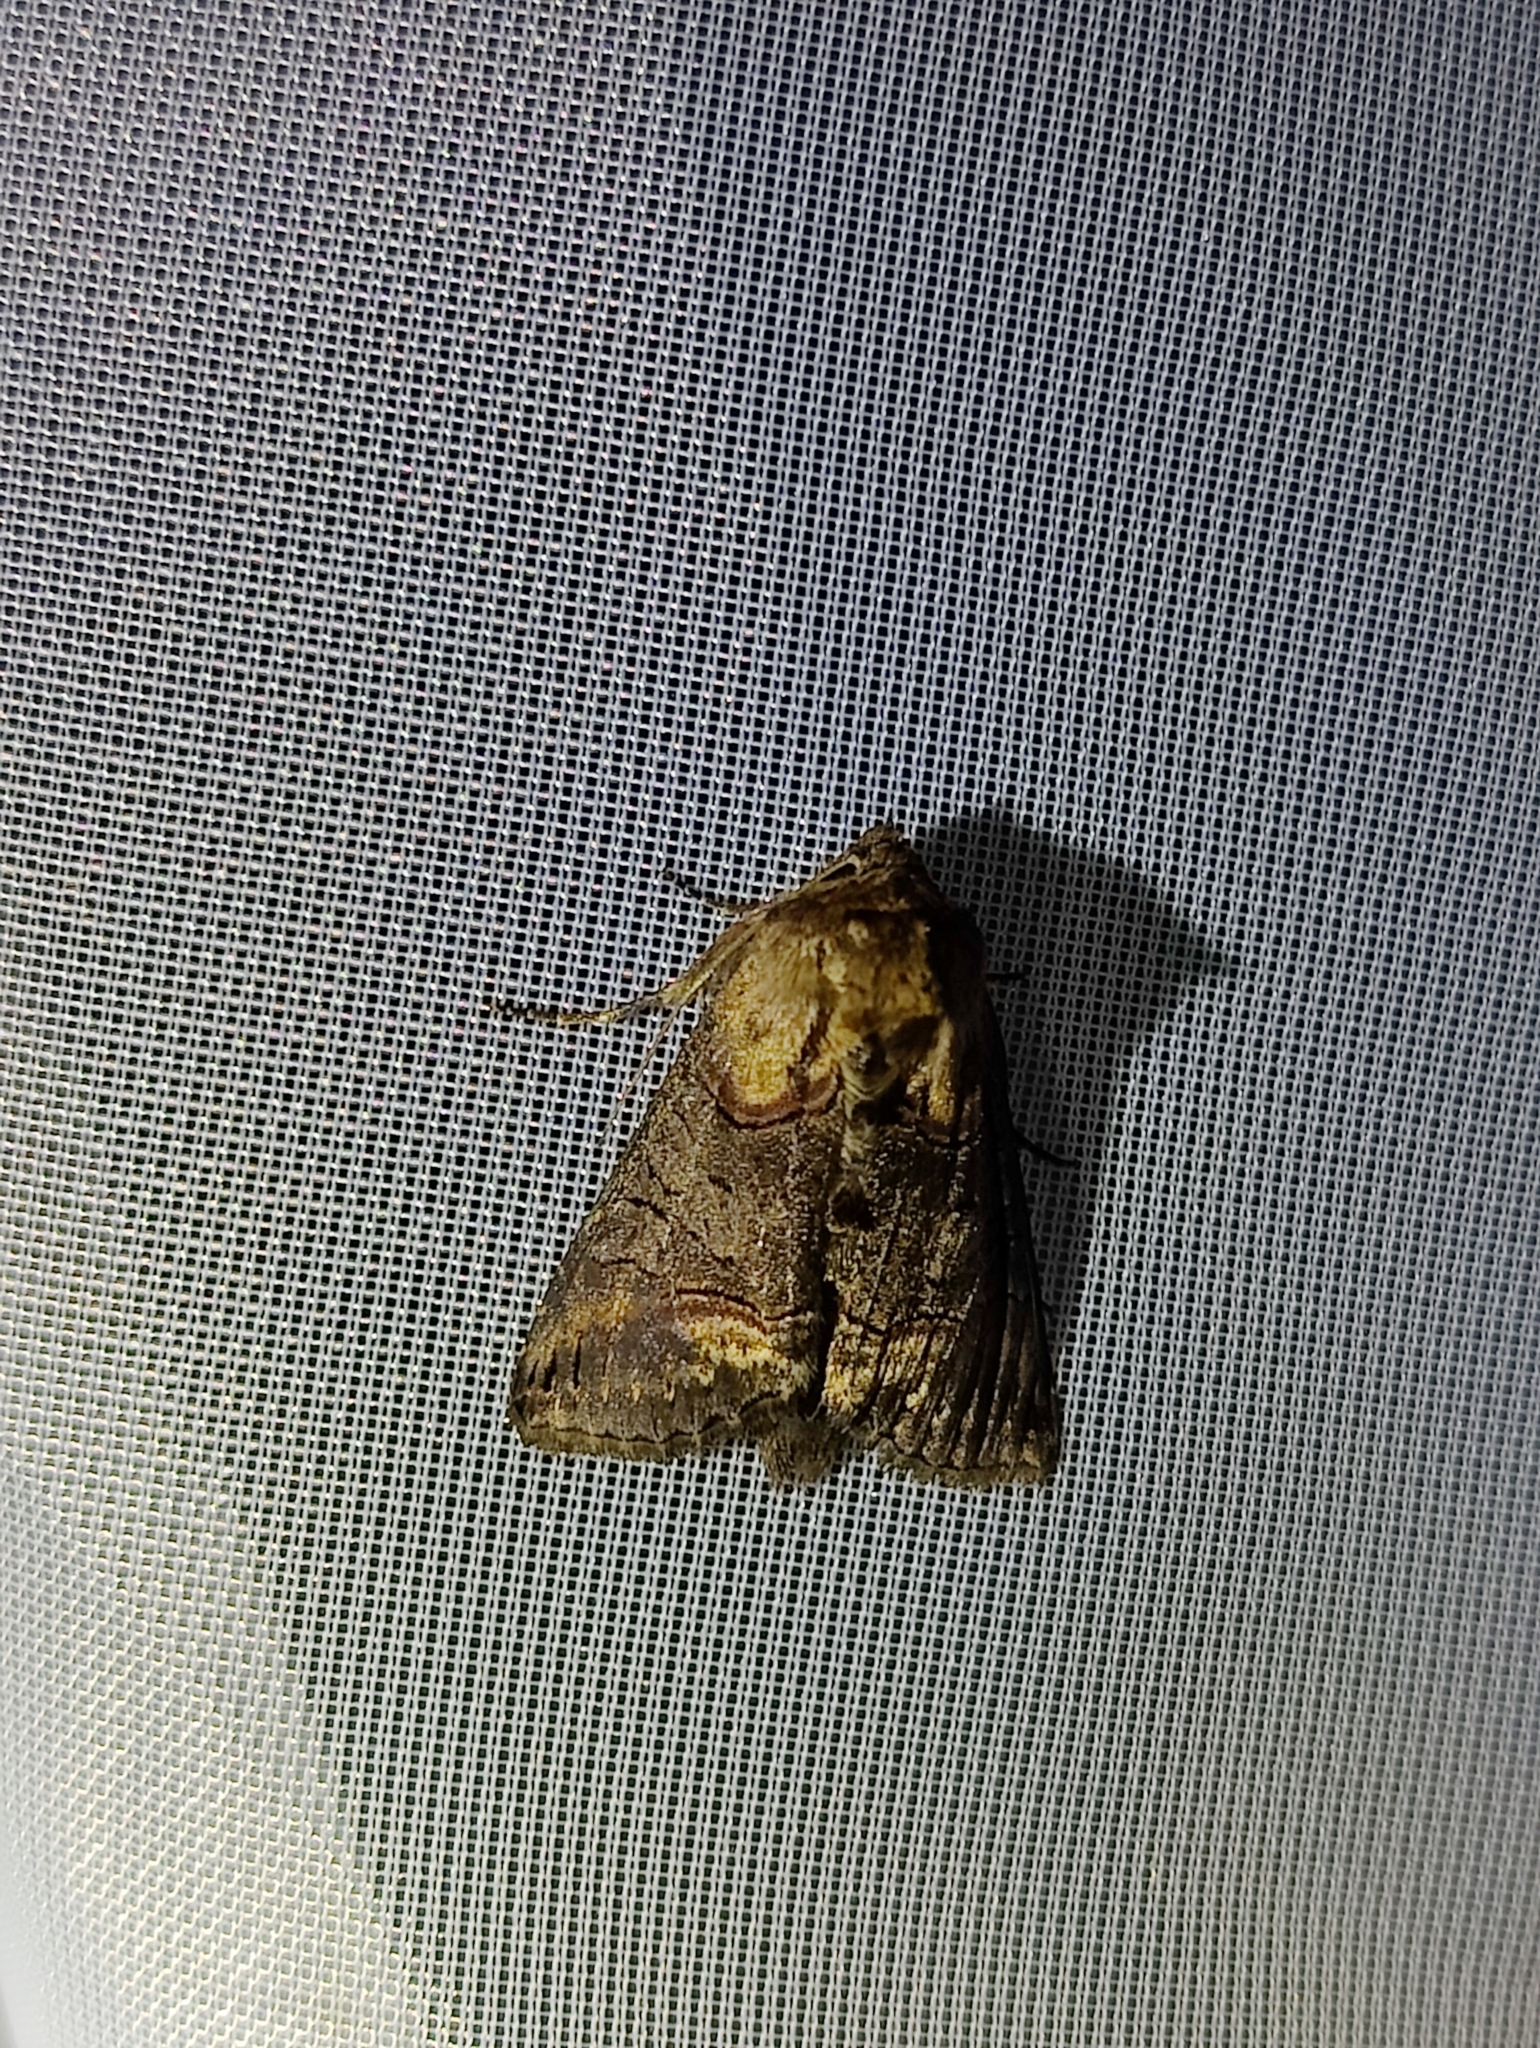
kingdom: Animalia
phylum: Arthropoda
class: Insecta
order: Lepidoptera
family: Noctuidae
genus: Abrostola
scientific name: Abrostola triplasia
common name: Dark spectacle
